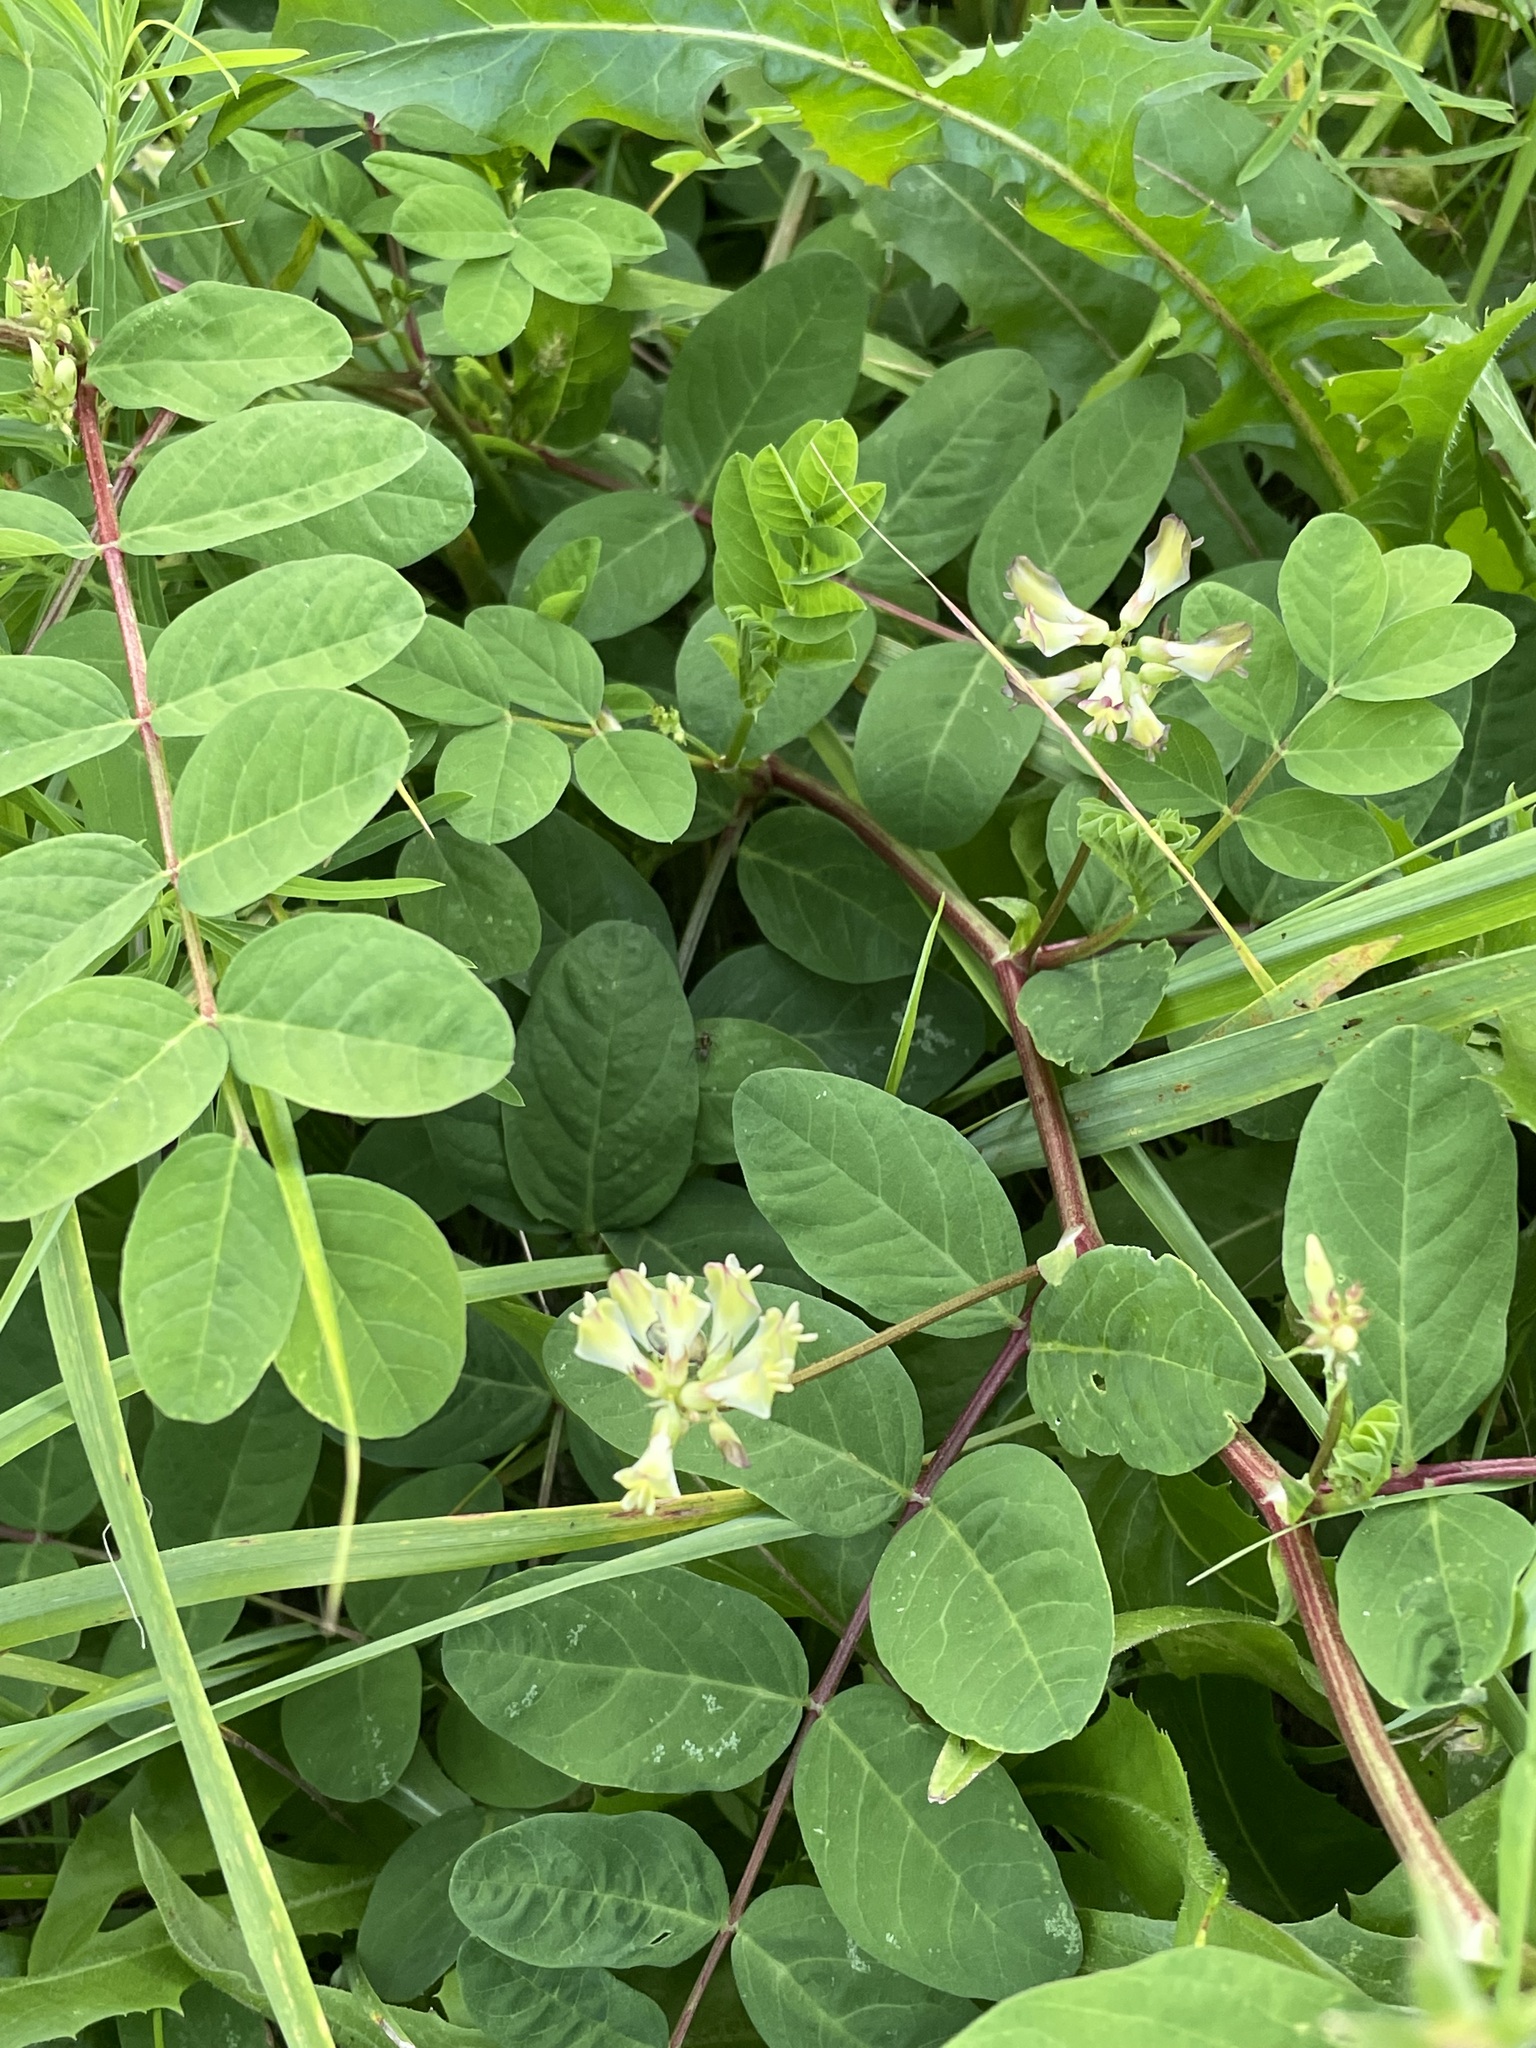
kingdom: Plantae
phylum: Tracheophyta
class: Magnoliopsida
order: Fabales
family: Fabaceae
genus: Astragalus
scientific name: Astragalus glycyphyllos
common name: Wild liquorice
